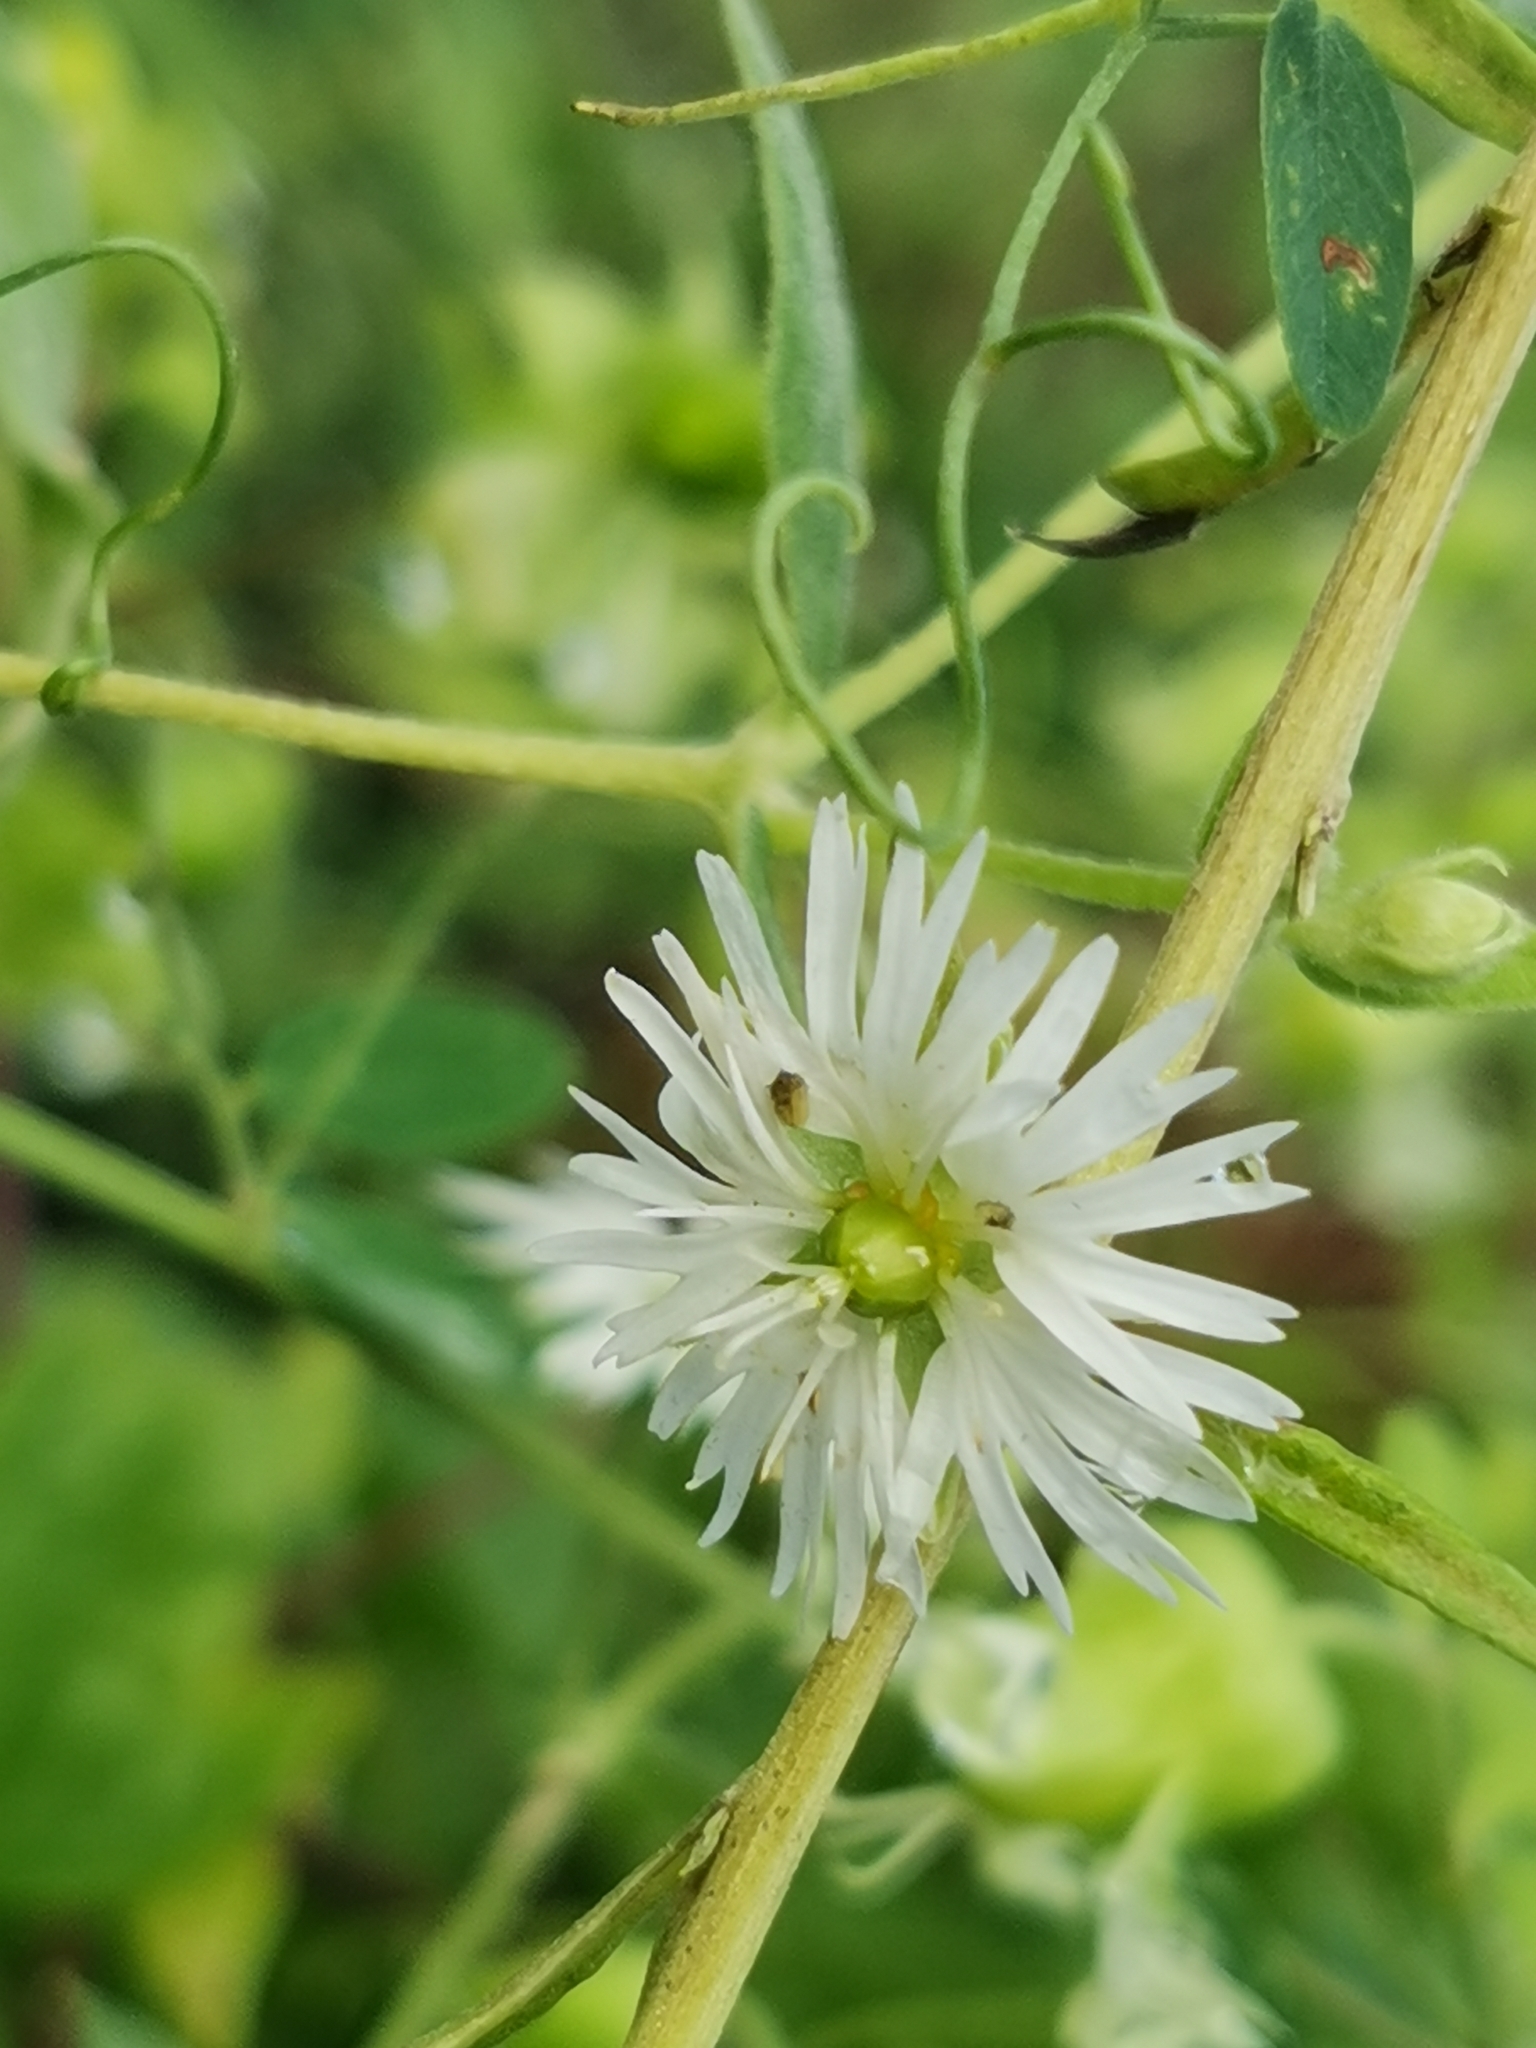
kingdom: Plantae
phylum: Tracheophyta
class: Magnoliopsida
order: Caryophyllales
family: Caryophyllaceae
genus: Stellaria
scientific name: Stellaria radians
